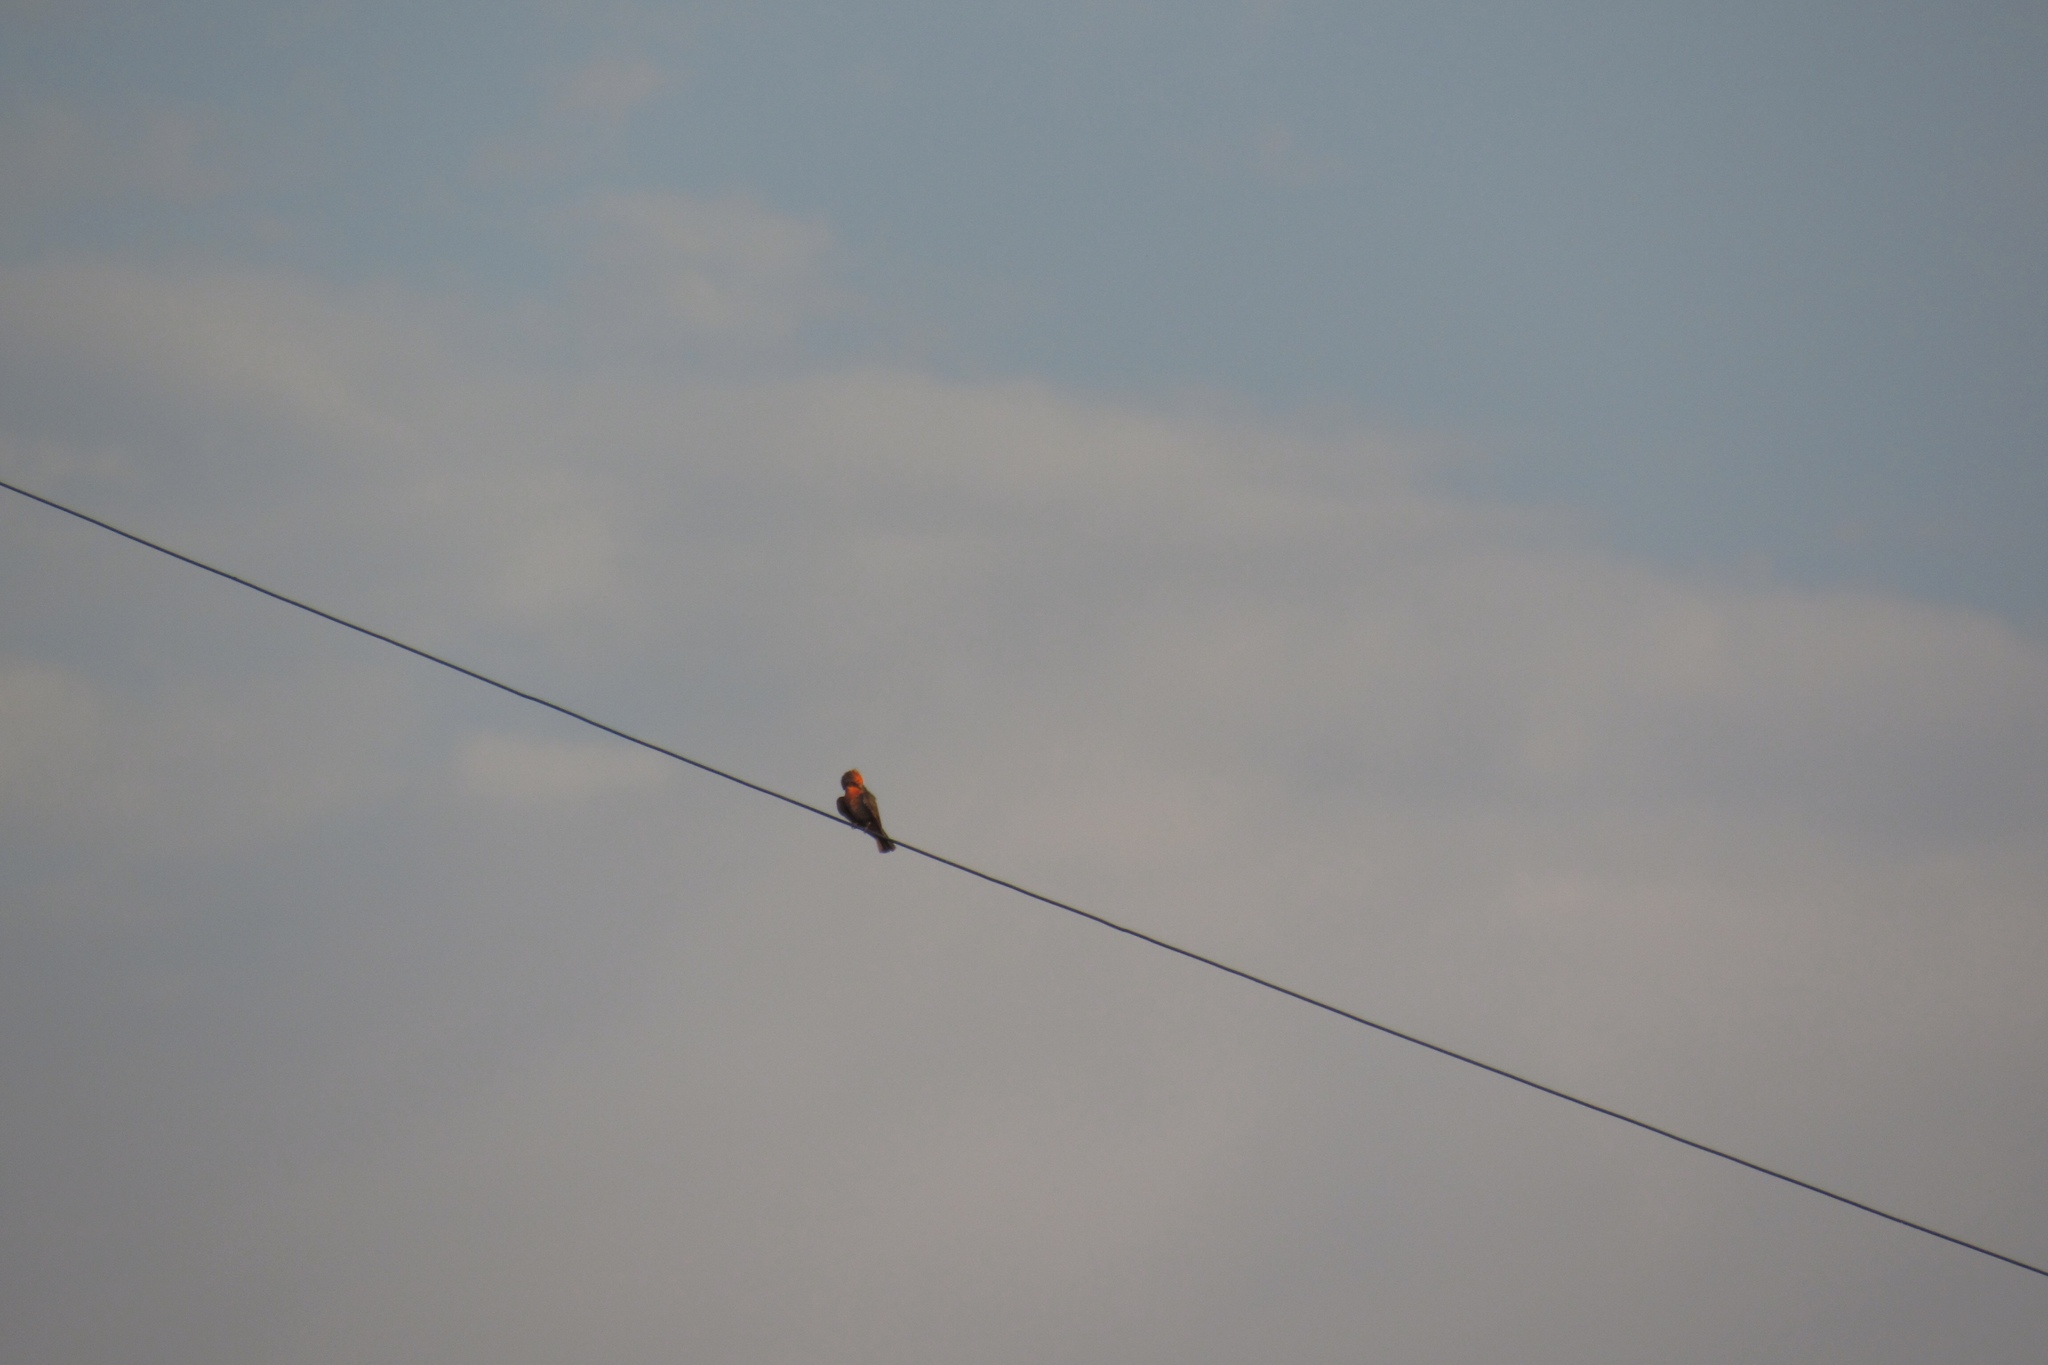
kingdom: Animalia
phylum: Chordata
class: Aves
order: Passeriformes
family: Tyrannidae
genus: Pyrocephalus
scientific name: Pyrocephalus rubinus
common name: Vermilion flycatcher
